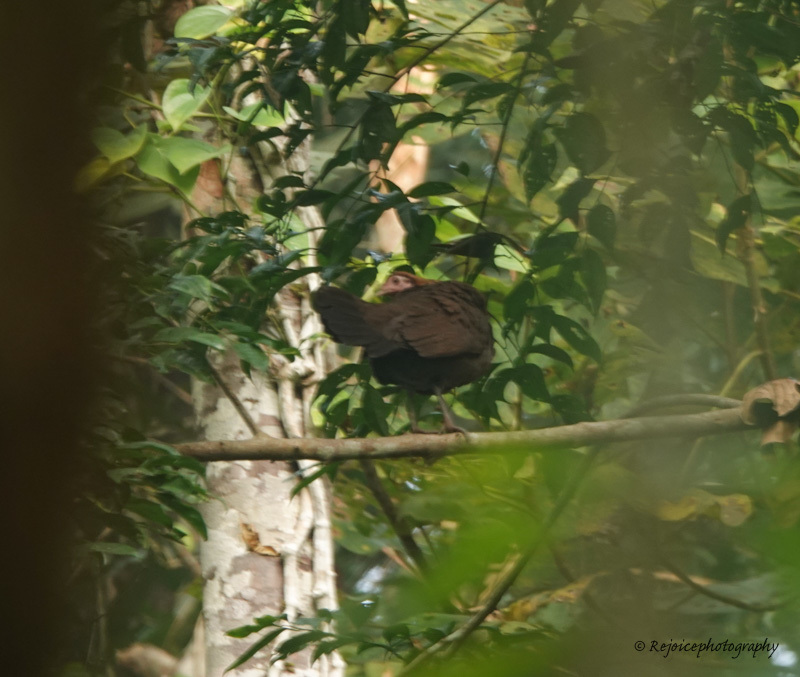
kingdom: Animalia
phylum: Chordata
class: Aves
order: Galliformes
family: Phasianidae
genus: Gallus
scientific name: Gallus gallus
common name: Red junglefowl
